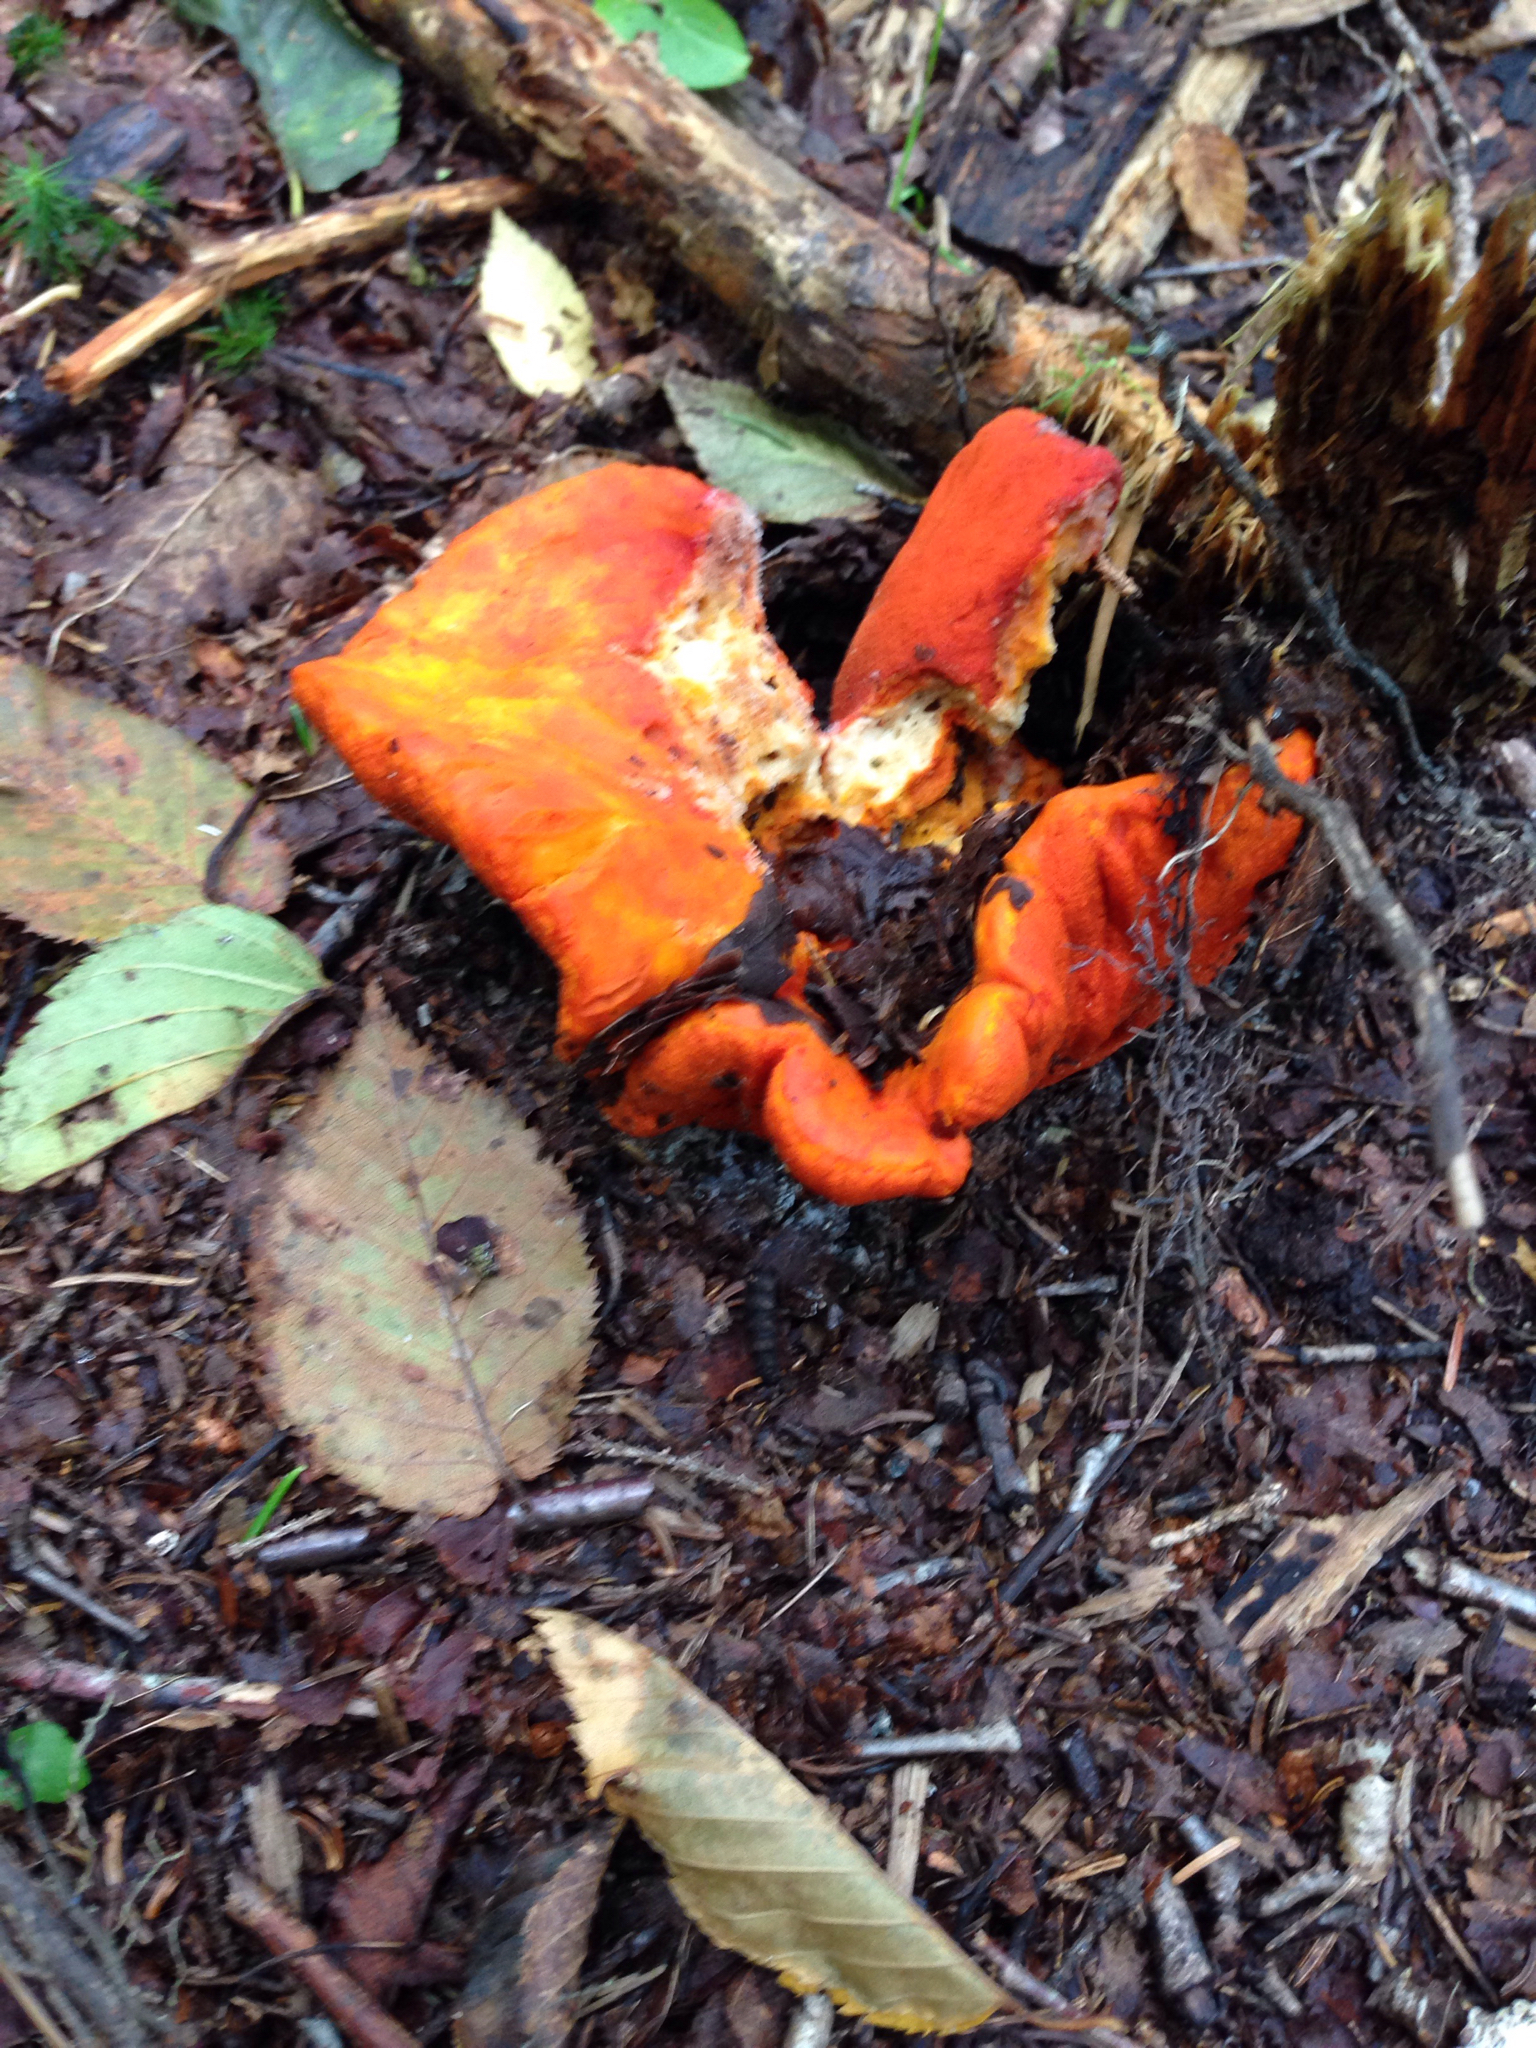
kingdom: Fungi
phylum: Ascomycota
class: Sordariomycetes
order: Hypocreales
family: Hypocreaceae
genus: Hypomyces
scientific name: Hypomyces lactifluorum
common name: Lobster mushroom
